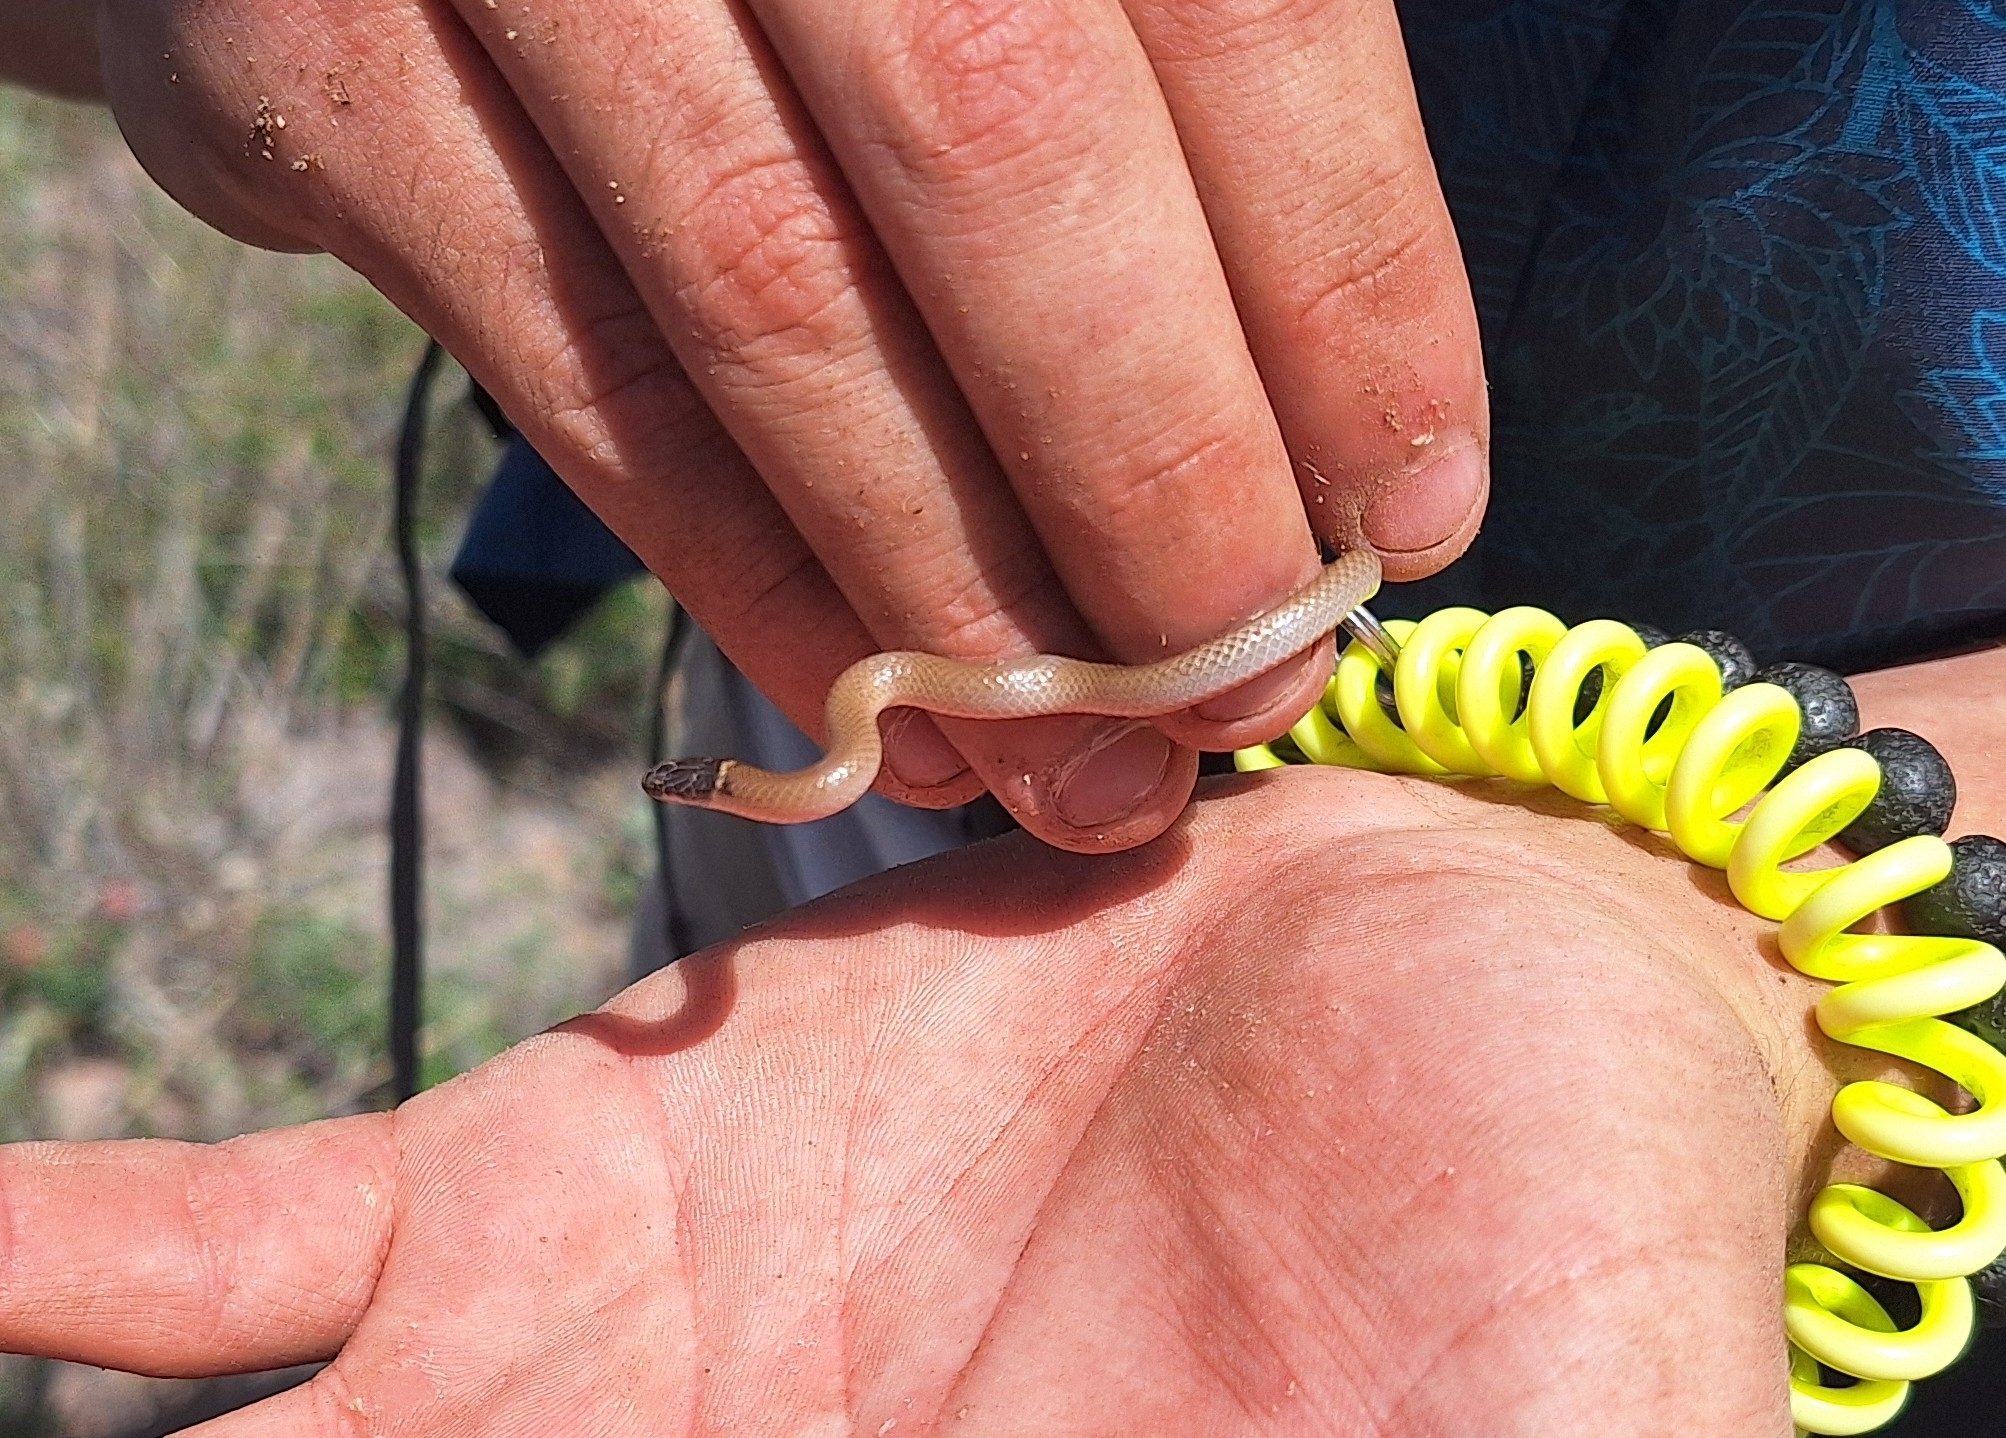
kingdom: Animalia
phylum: Chordata
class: Squamata
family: Colubridae
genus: Tantilla
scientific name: Tantilla yaquia
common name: Yaqui black-headed snake
